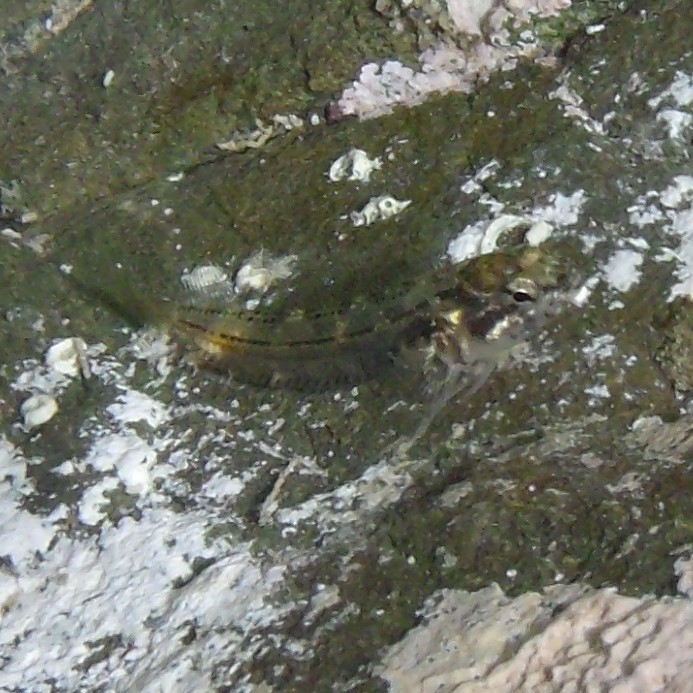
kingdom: Animalia
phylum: Chordata
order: Perciformes
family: Tripterygiidae
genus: Bellapiscis
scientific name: Bellapiscis medius
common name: Twister
